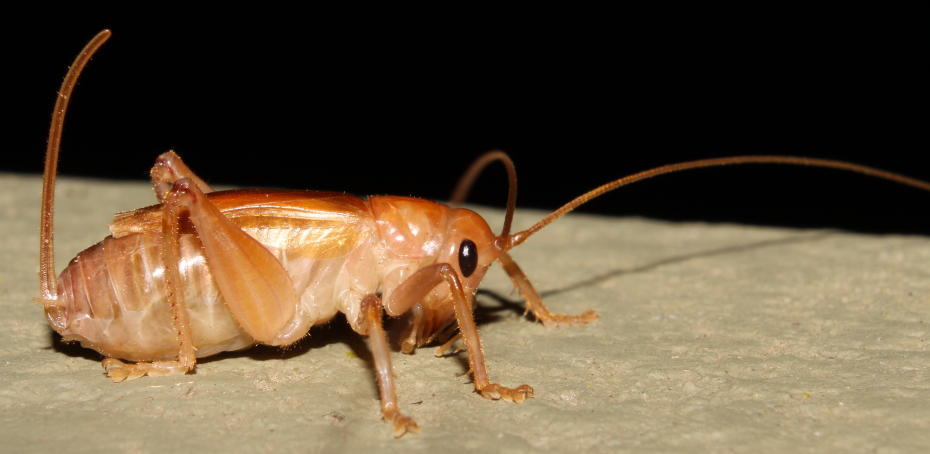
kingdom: Animalia
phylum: Arthropoda
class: Insecta
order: Orthoptera
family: Gryllacrididae
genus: Stictogryllacris
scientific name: Stictogryllacris nana
